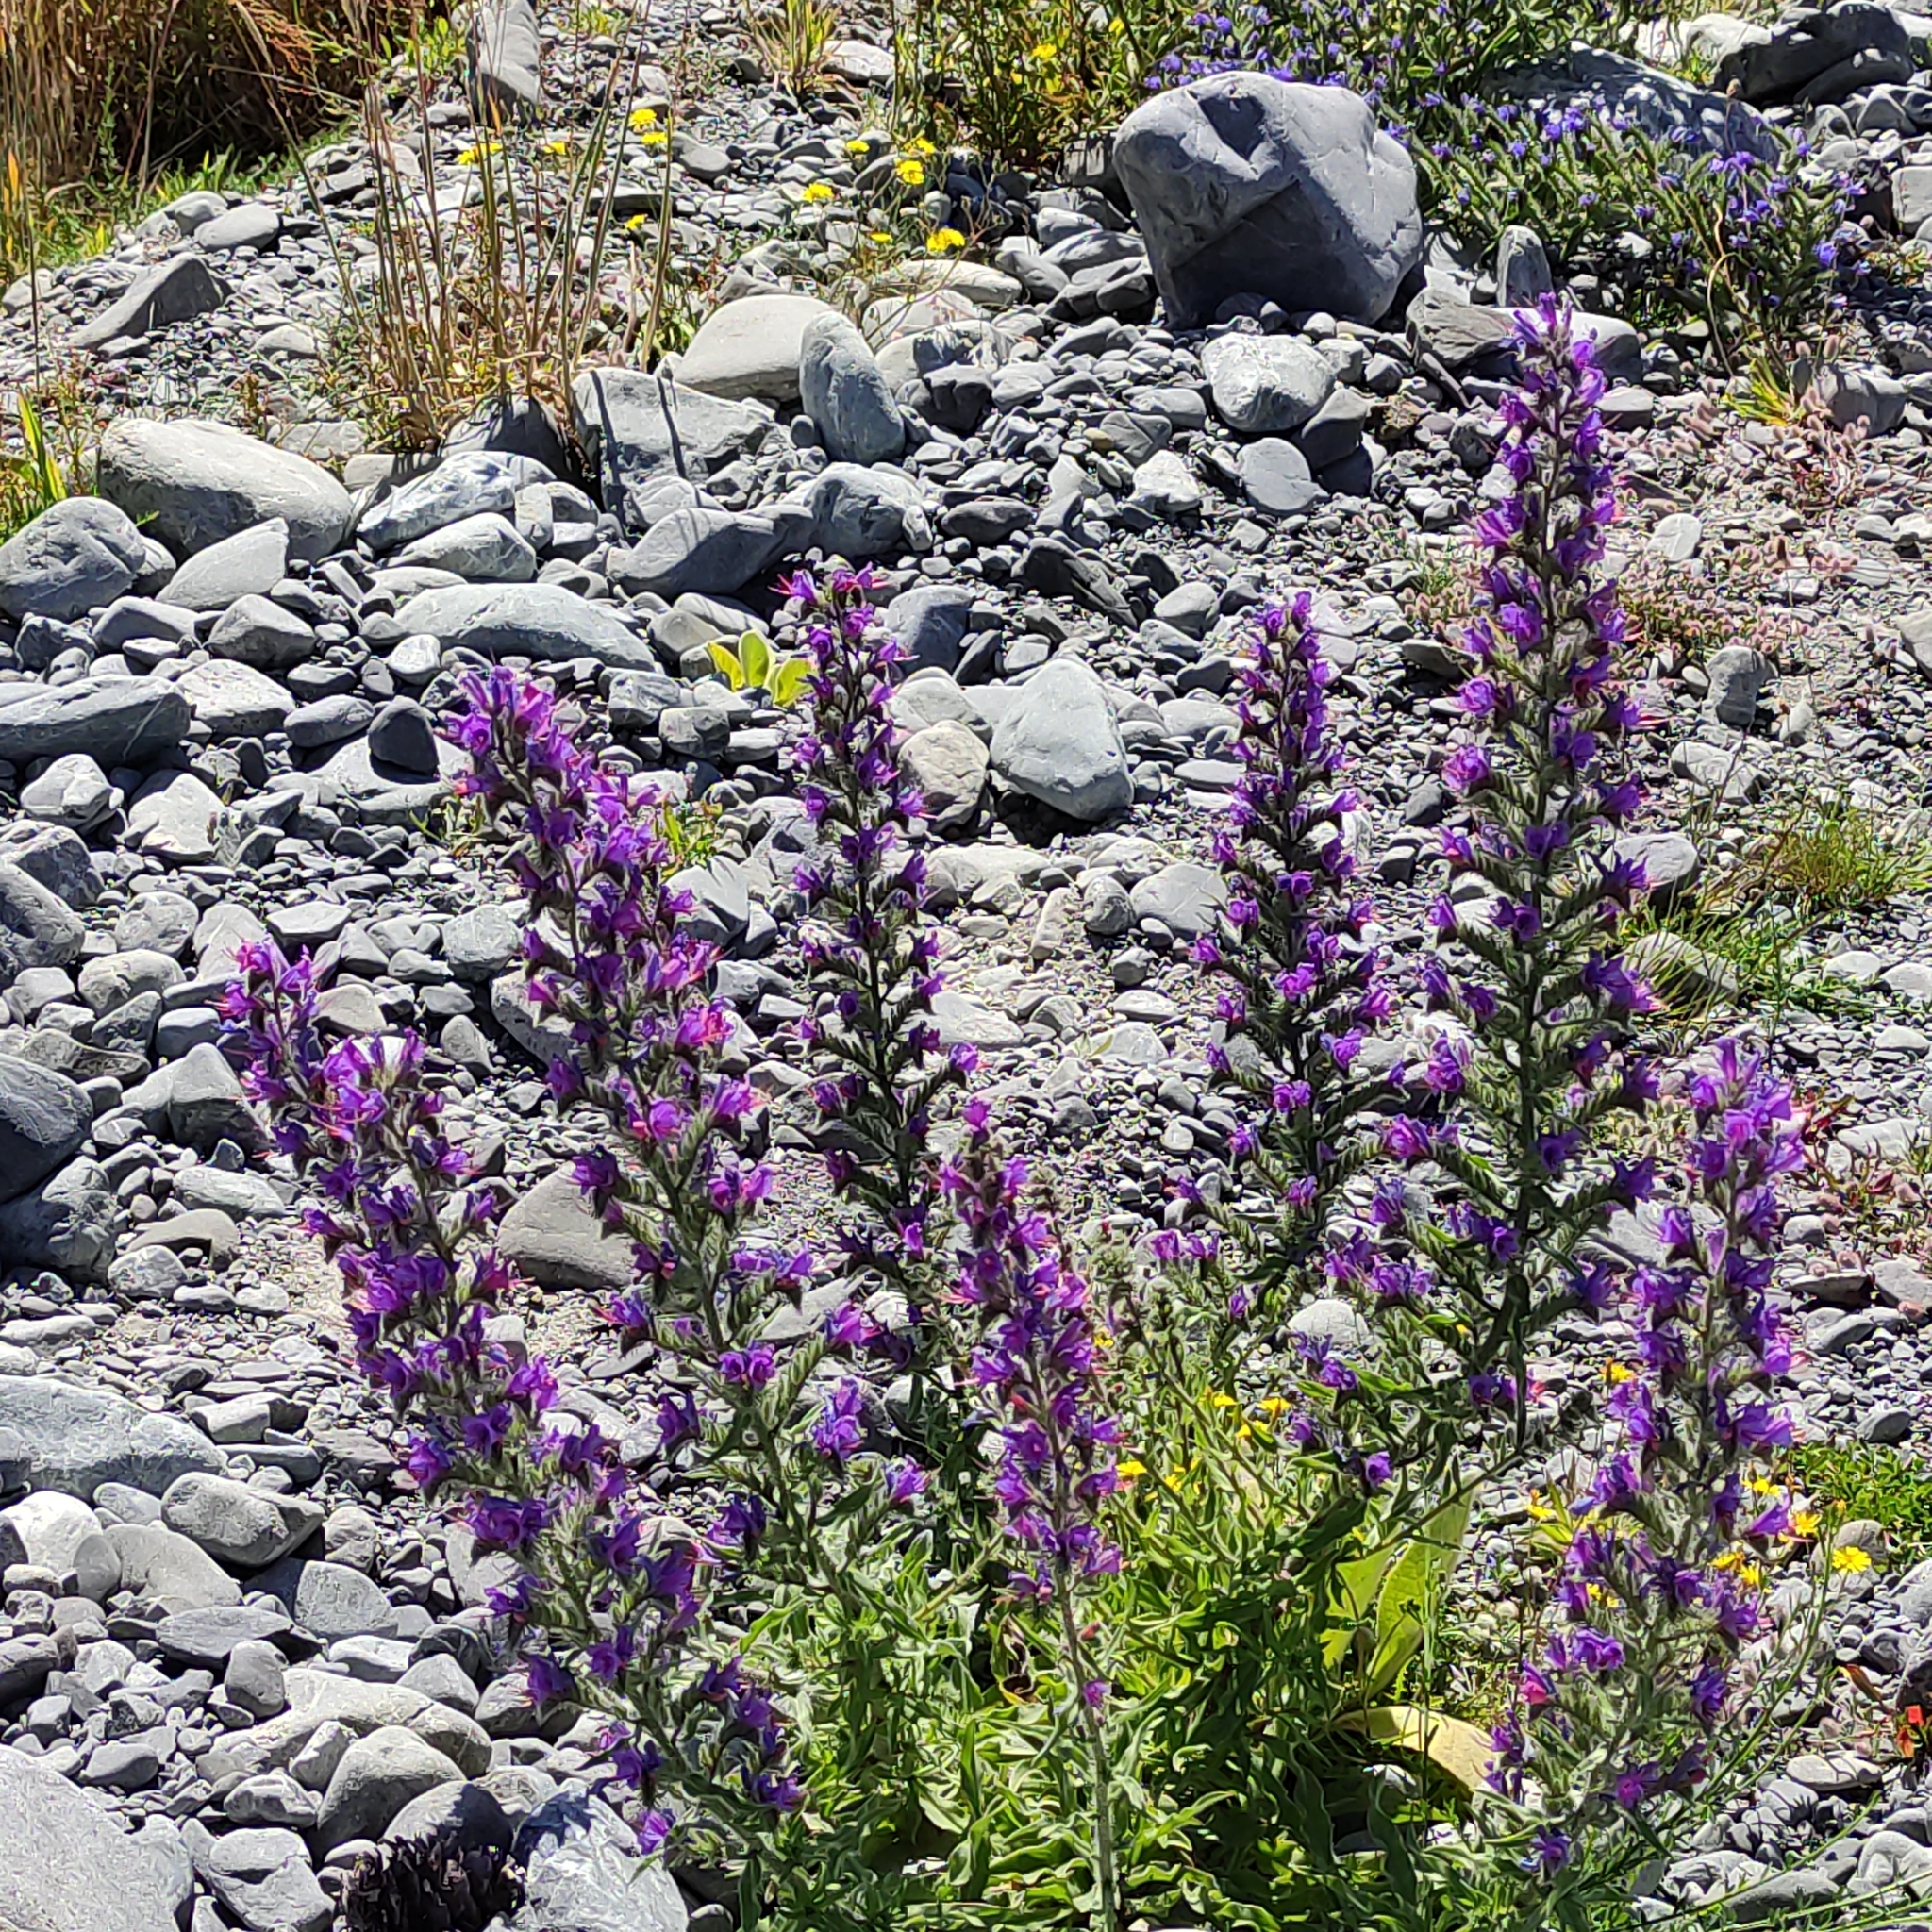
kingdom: Plantae
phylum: Tracheophyta
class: Magnoliopsida
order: Boraginales
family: Boraginaceae
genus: Echium
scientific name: Echium vulgare
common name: Common viper's bugloss
